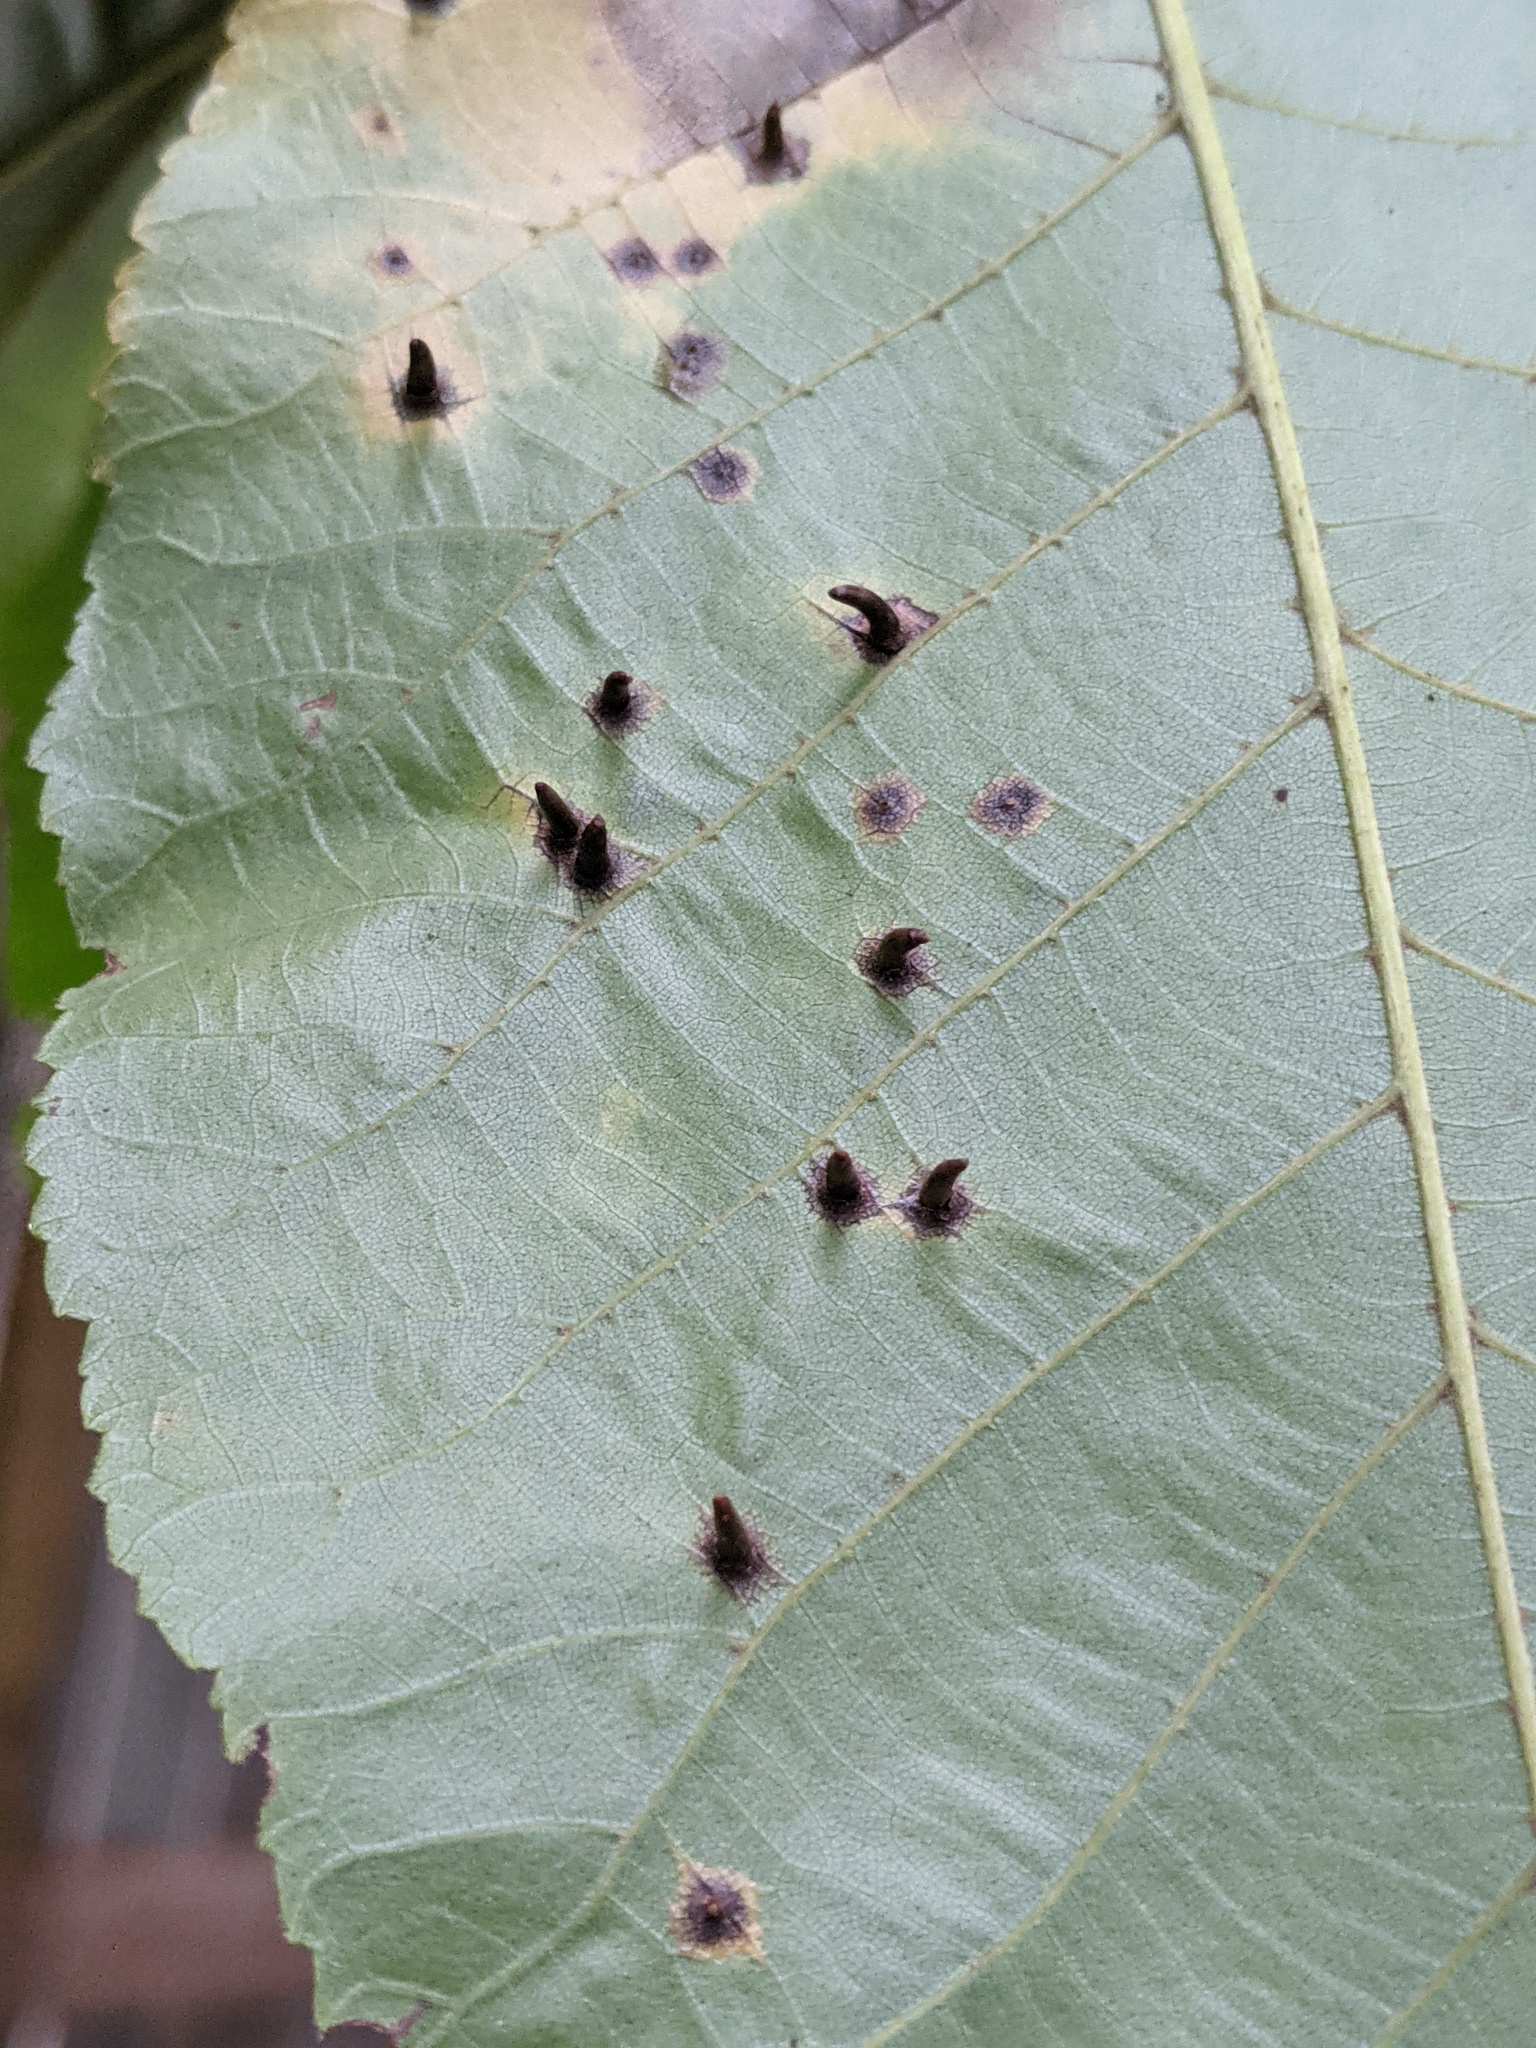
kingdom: Animalia
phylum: Arthropoda
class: Insecta
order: Diptera
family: Cecidomyiidae
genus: Caryomyia
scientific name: Caryomyia tubicola
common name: Hickory bullet gall midge
